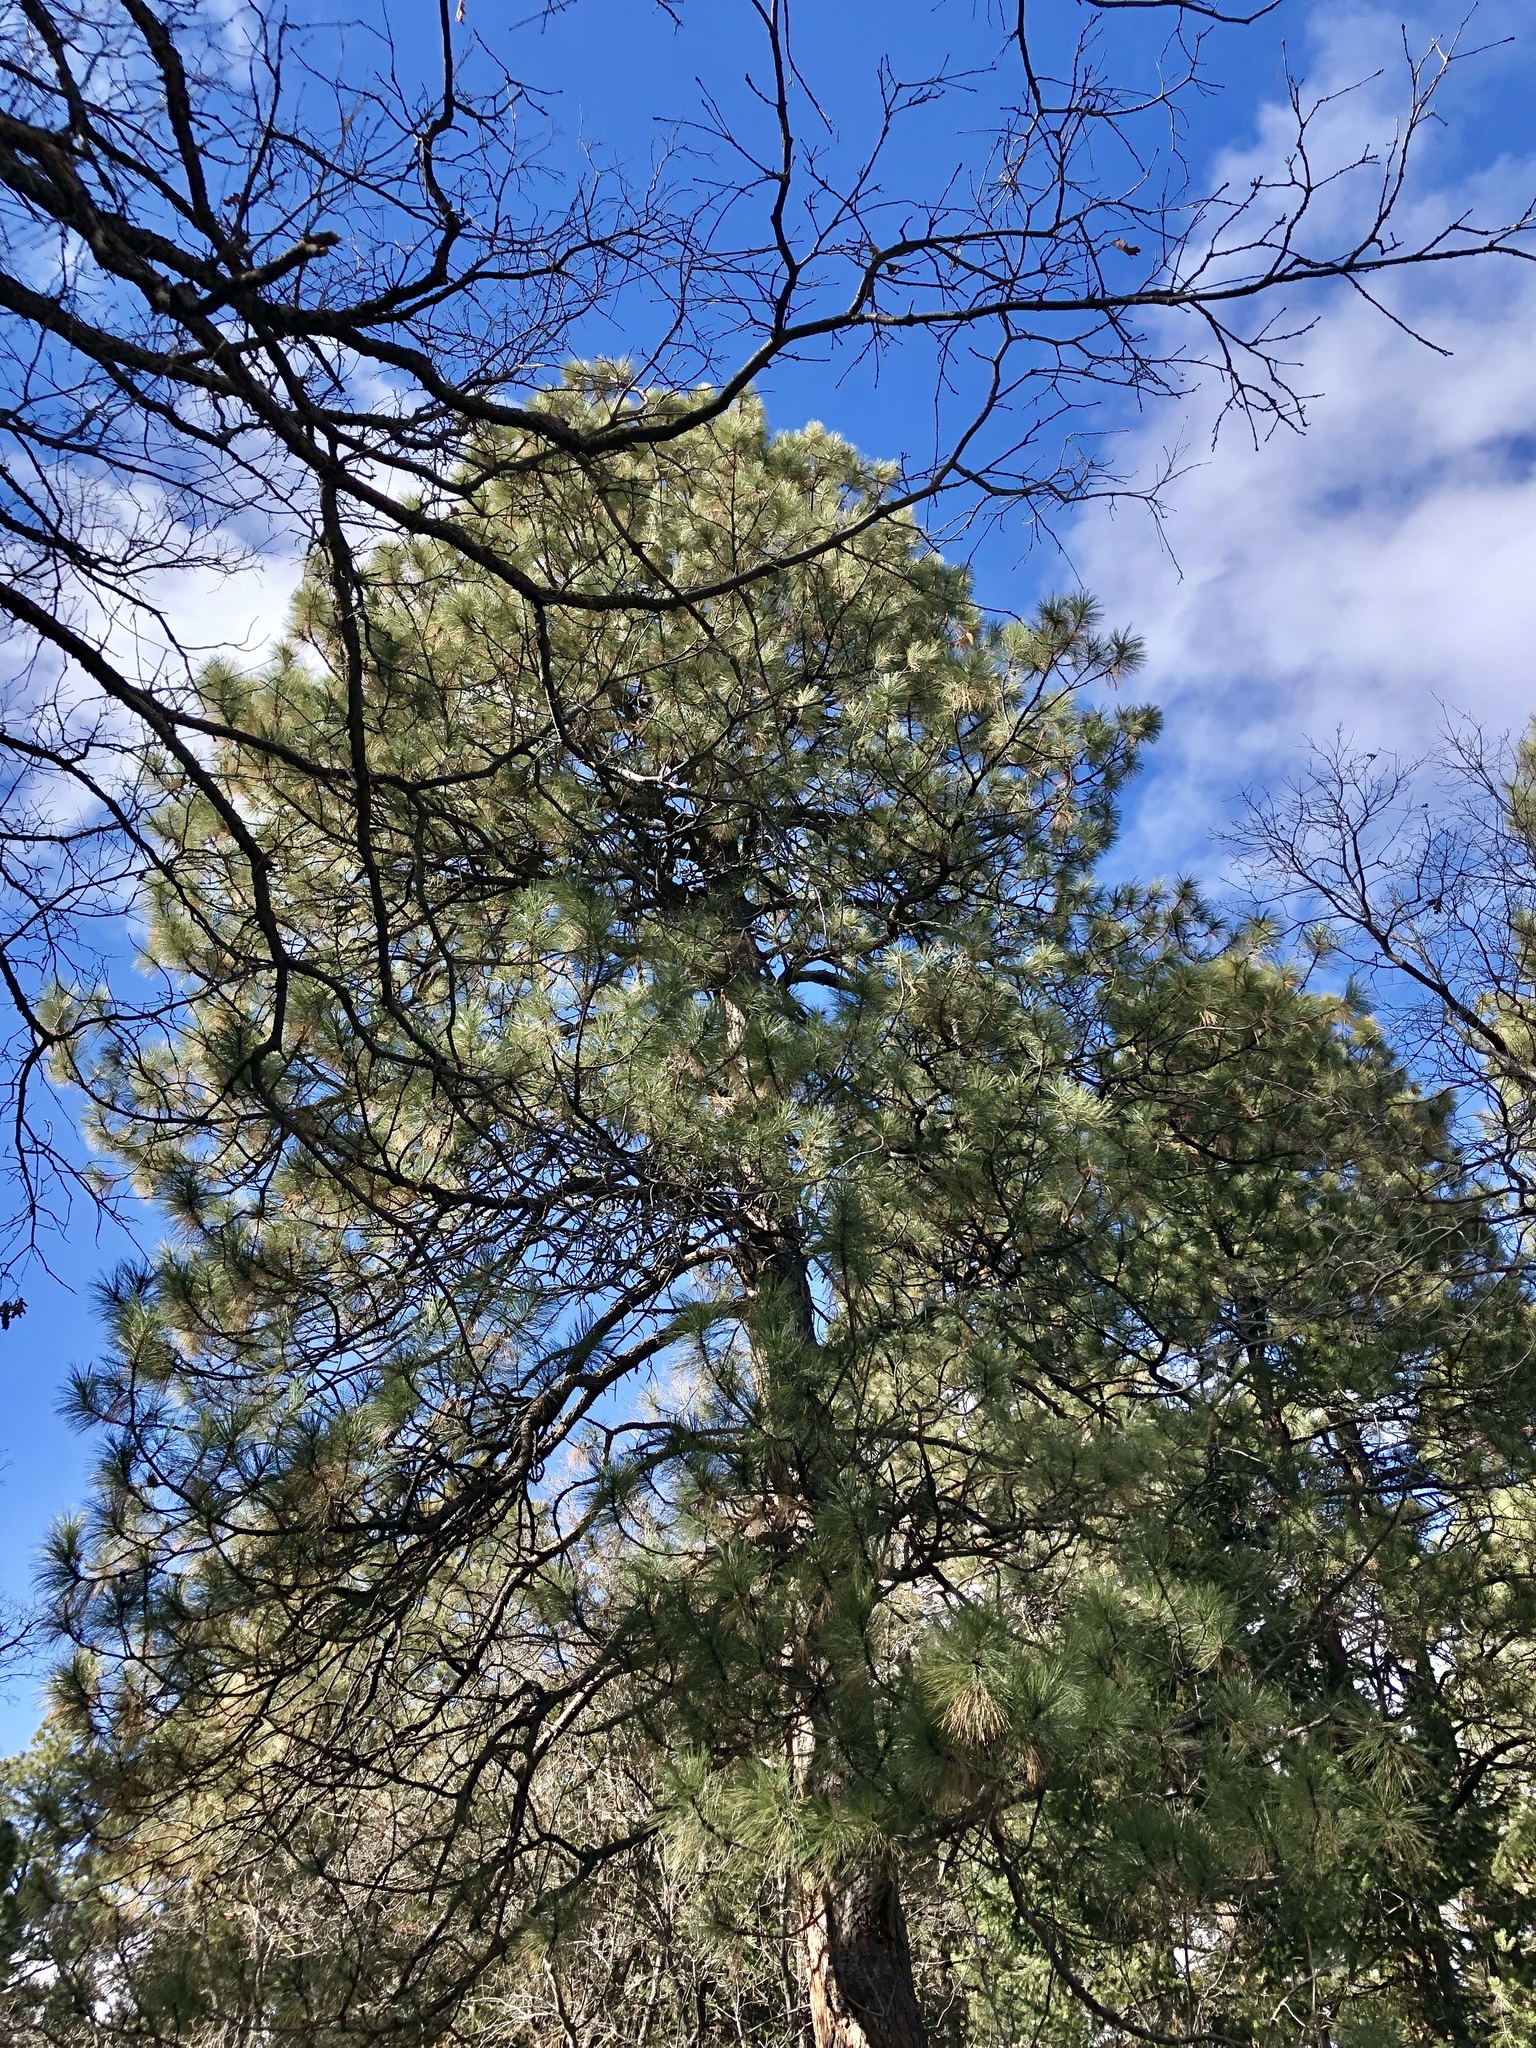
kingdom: Plantae
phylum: Tracheophyta
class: Pinopsida
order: Pinales
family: Pinaceae
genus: Pinus
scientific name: Pinus ponderosa
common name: Western yellow-pine
